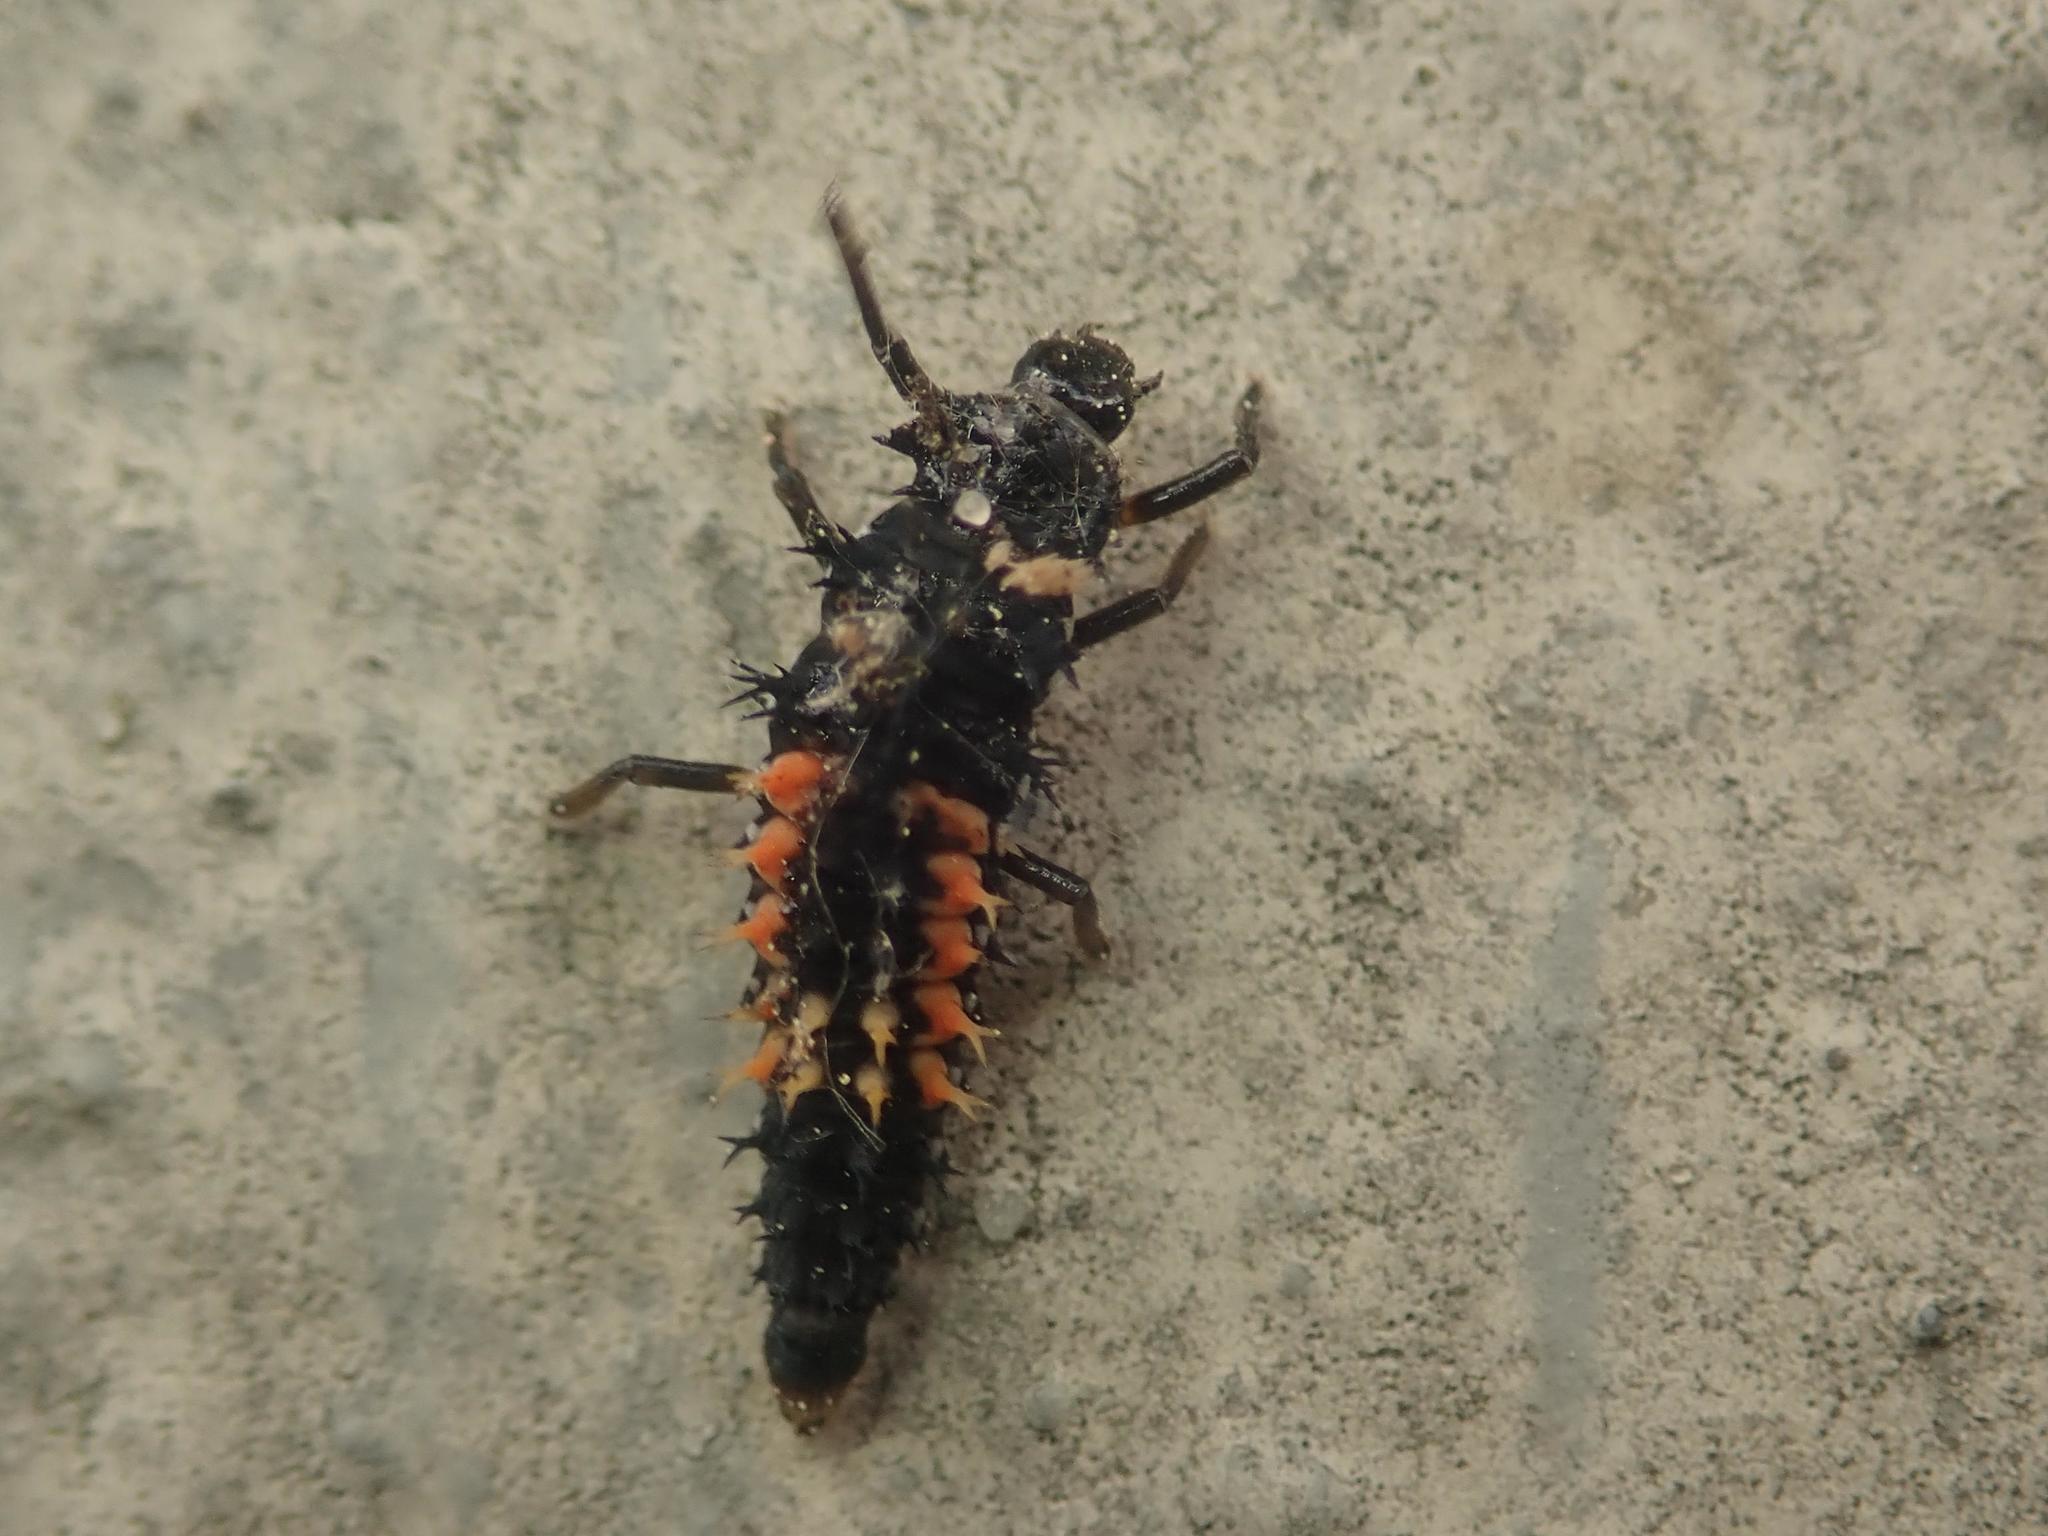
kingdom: Animalia
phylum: Arthropoda
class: Insecta
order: Coleoptera
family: Coccinellidae
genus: Harmonia
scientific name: Harmonia axyridis
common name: Harlequin ladybird
